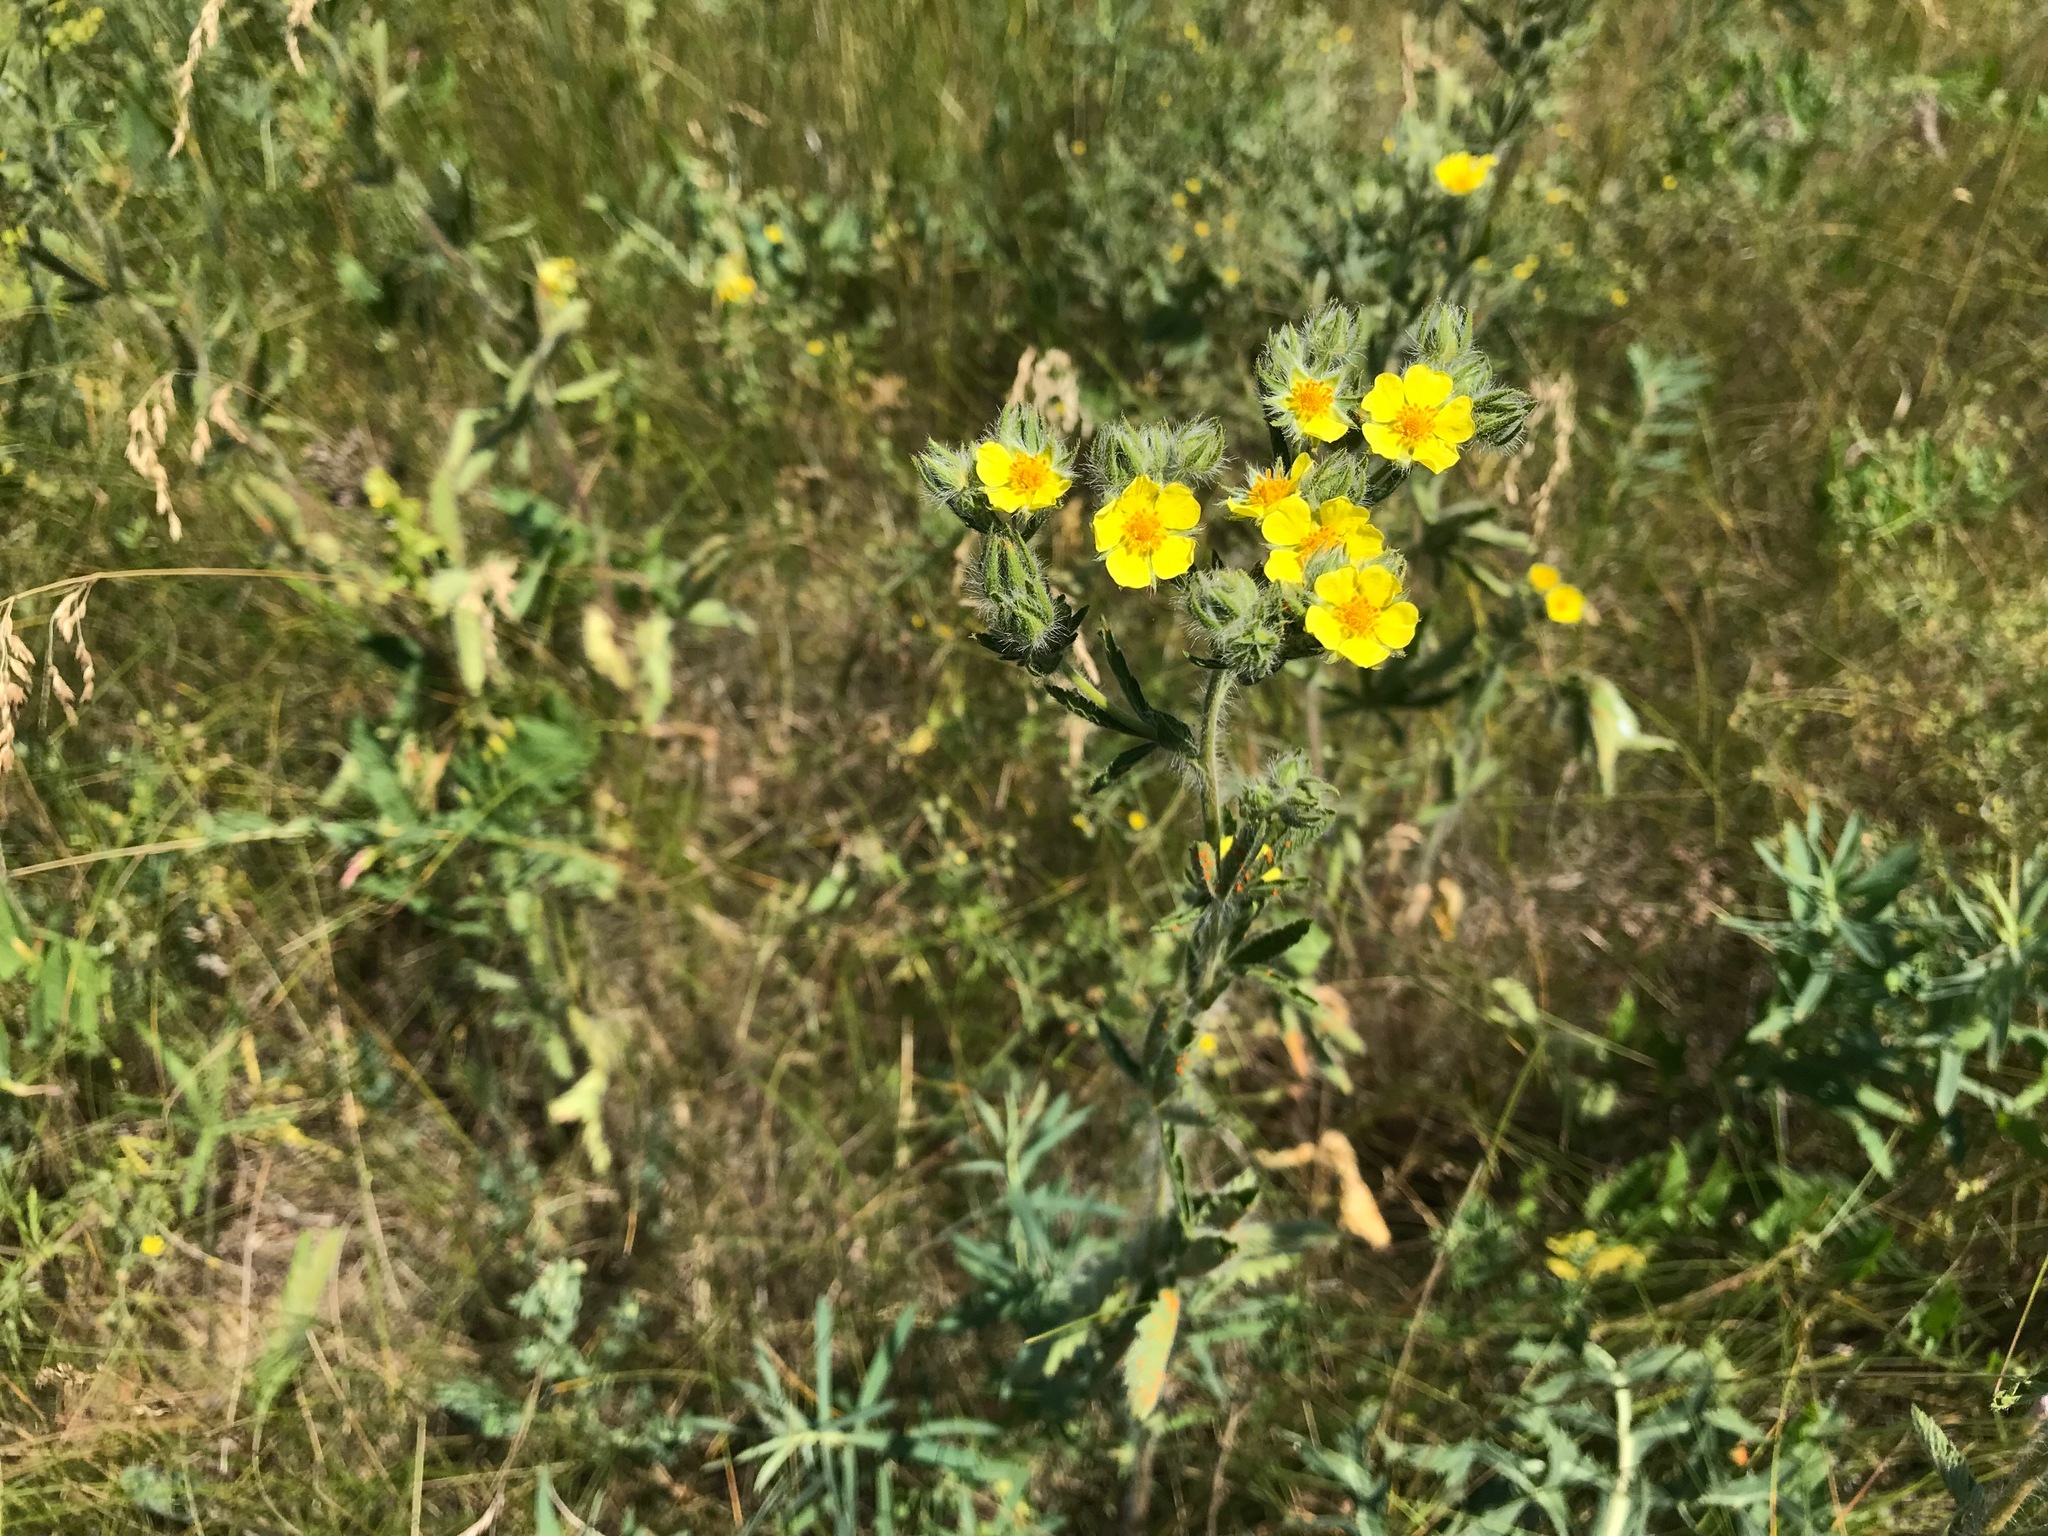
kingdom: Plantae
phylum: Tracheophyta
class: Magnoliopsida
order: Rosales
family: Rosaceae
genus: Potentilla
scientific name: Potentilla astracanica
